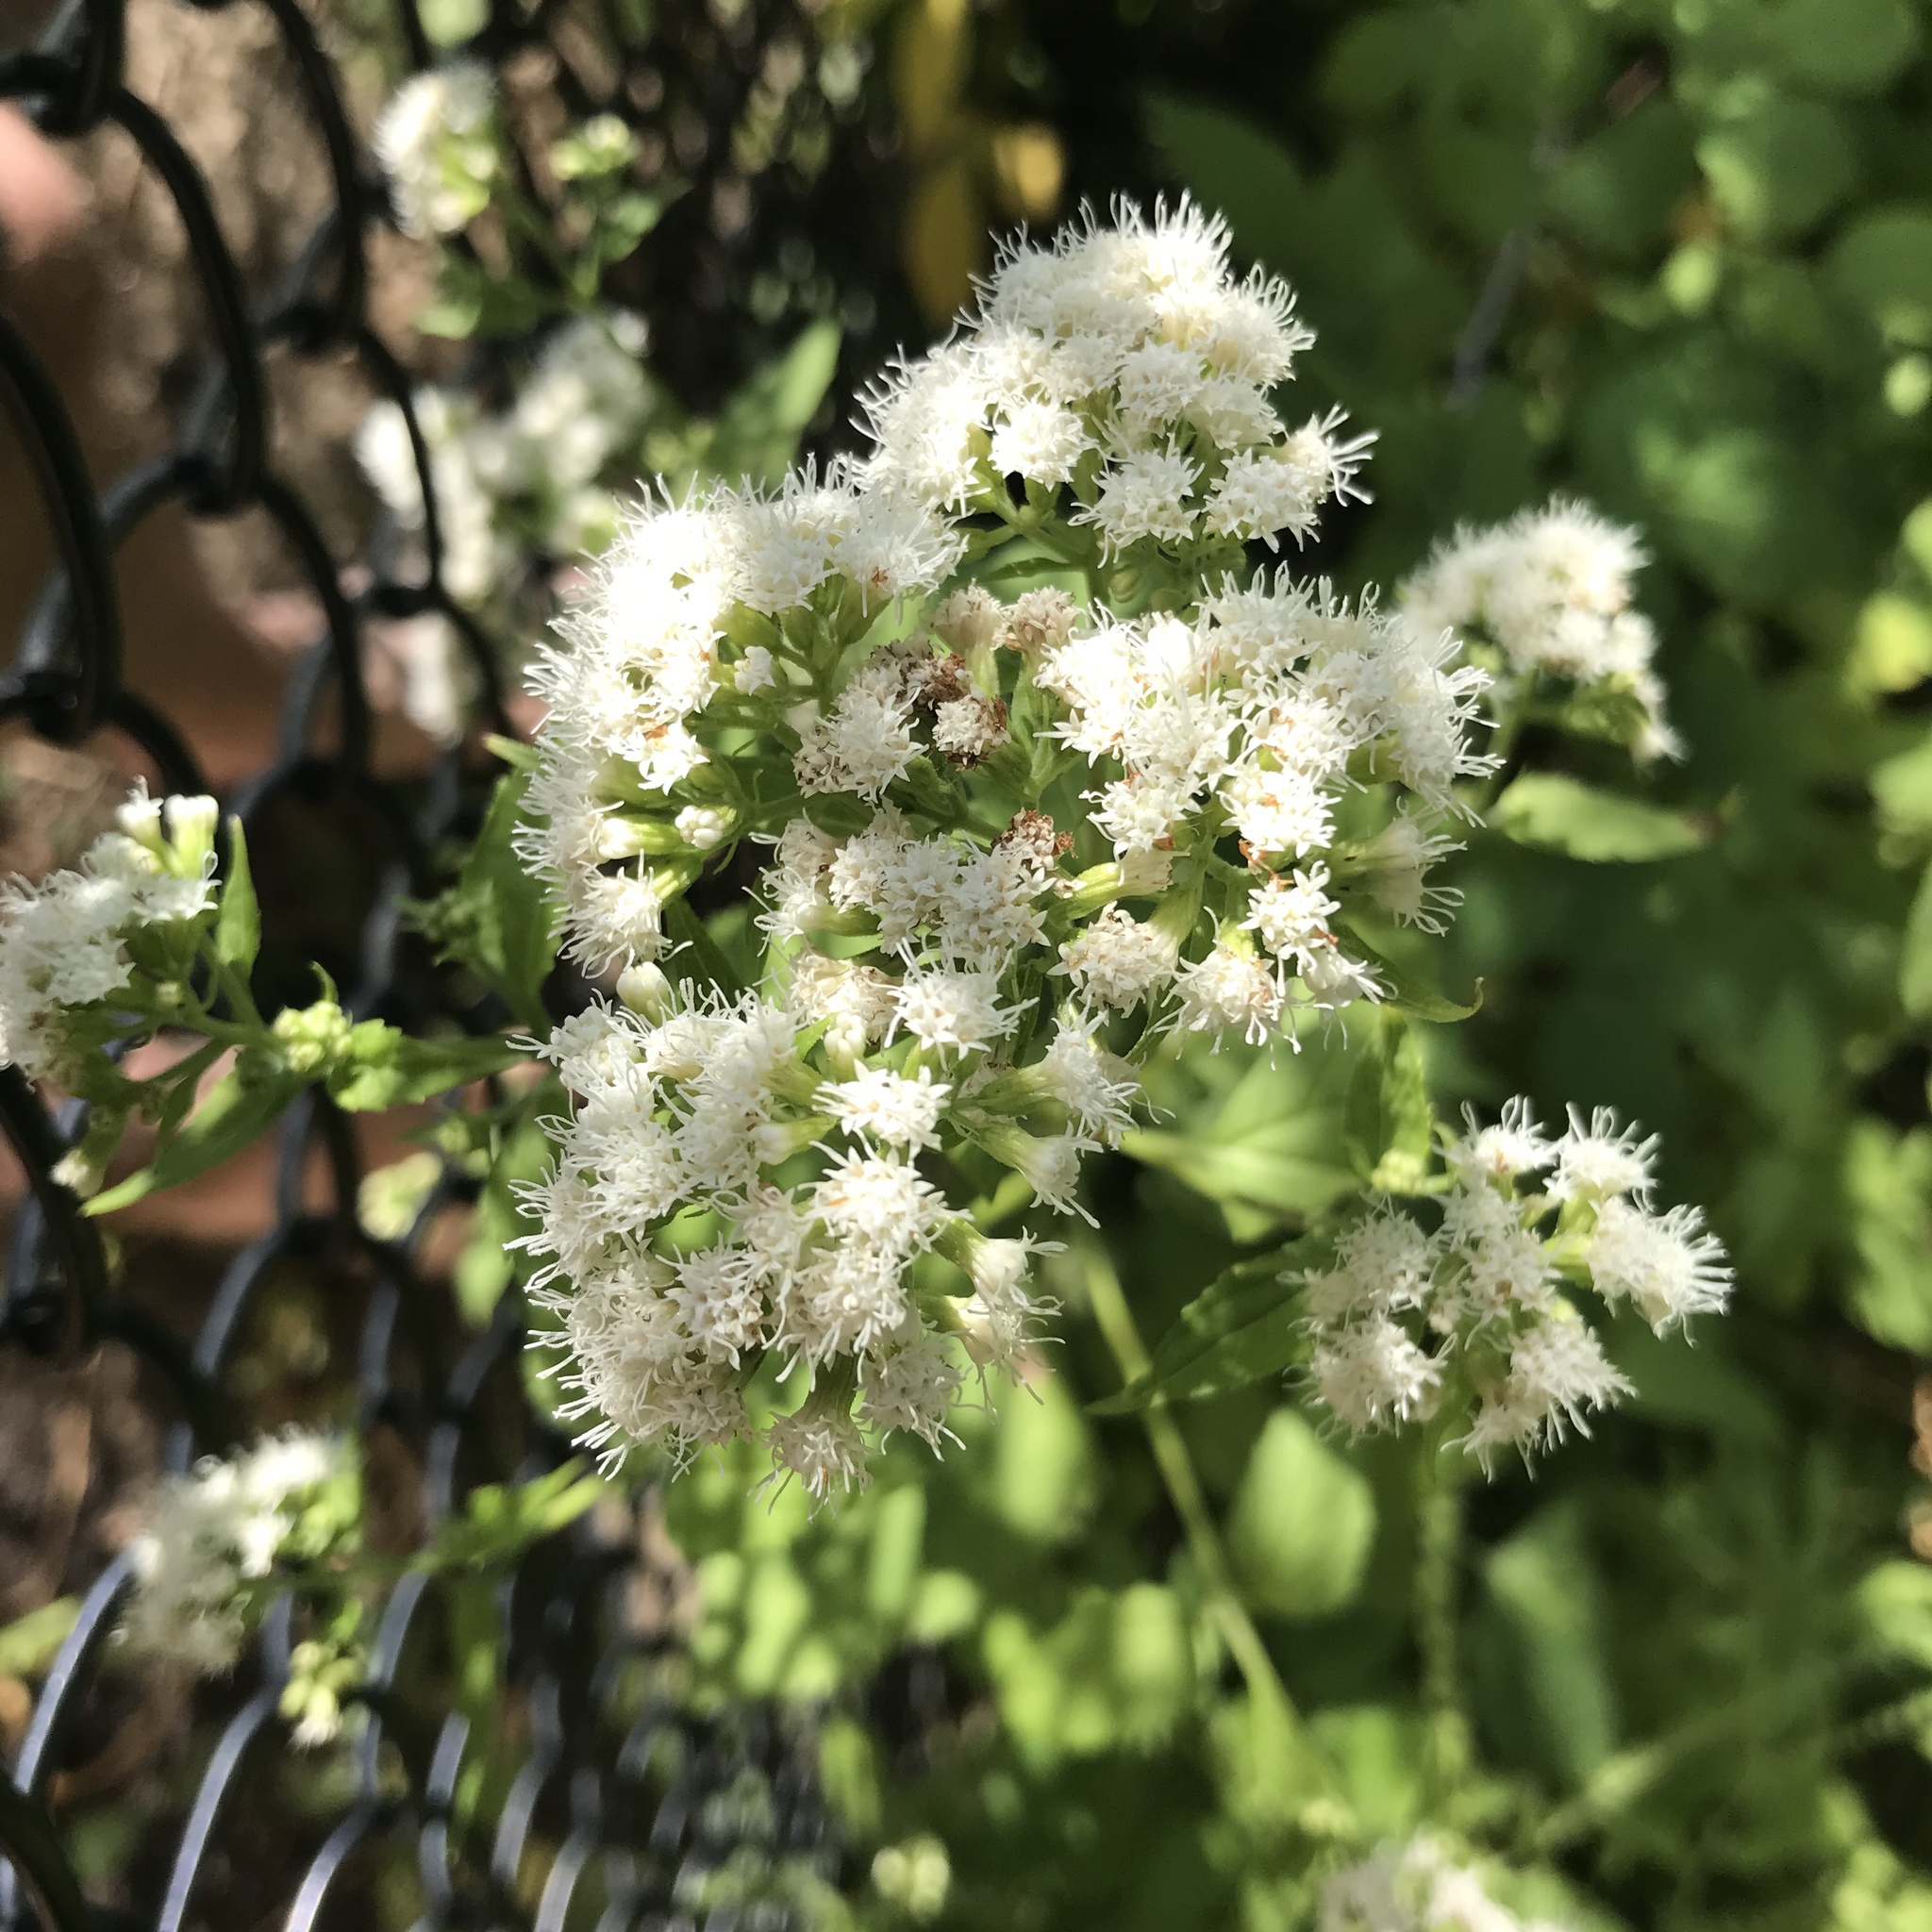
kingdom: Plantae
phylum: Tracheophyta
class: Magnoliopsida
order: Asterales
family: Asteraceae
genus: Ageratina
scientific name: Ageratina altissima
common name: White snakeroot
